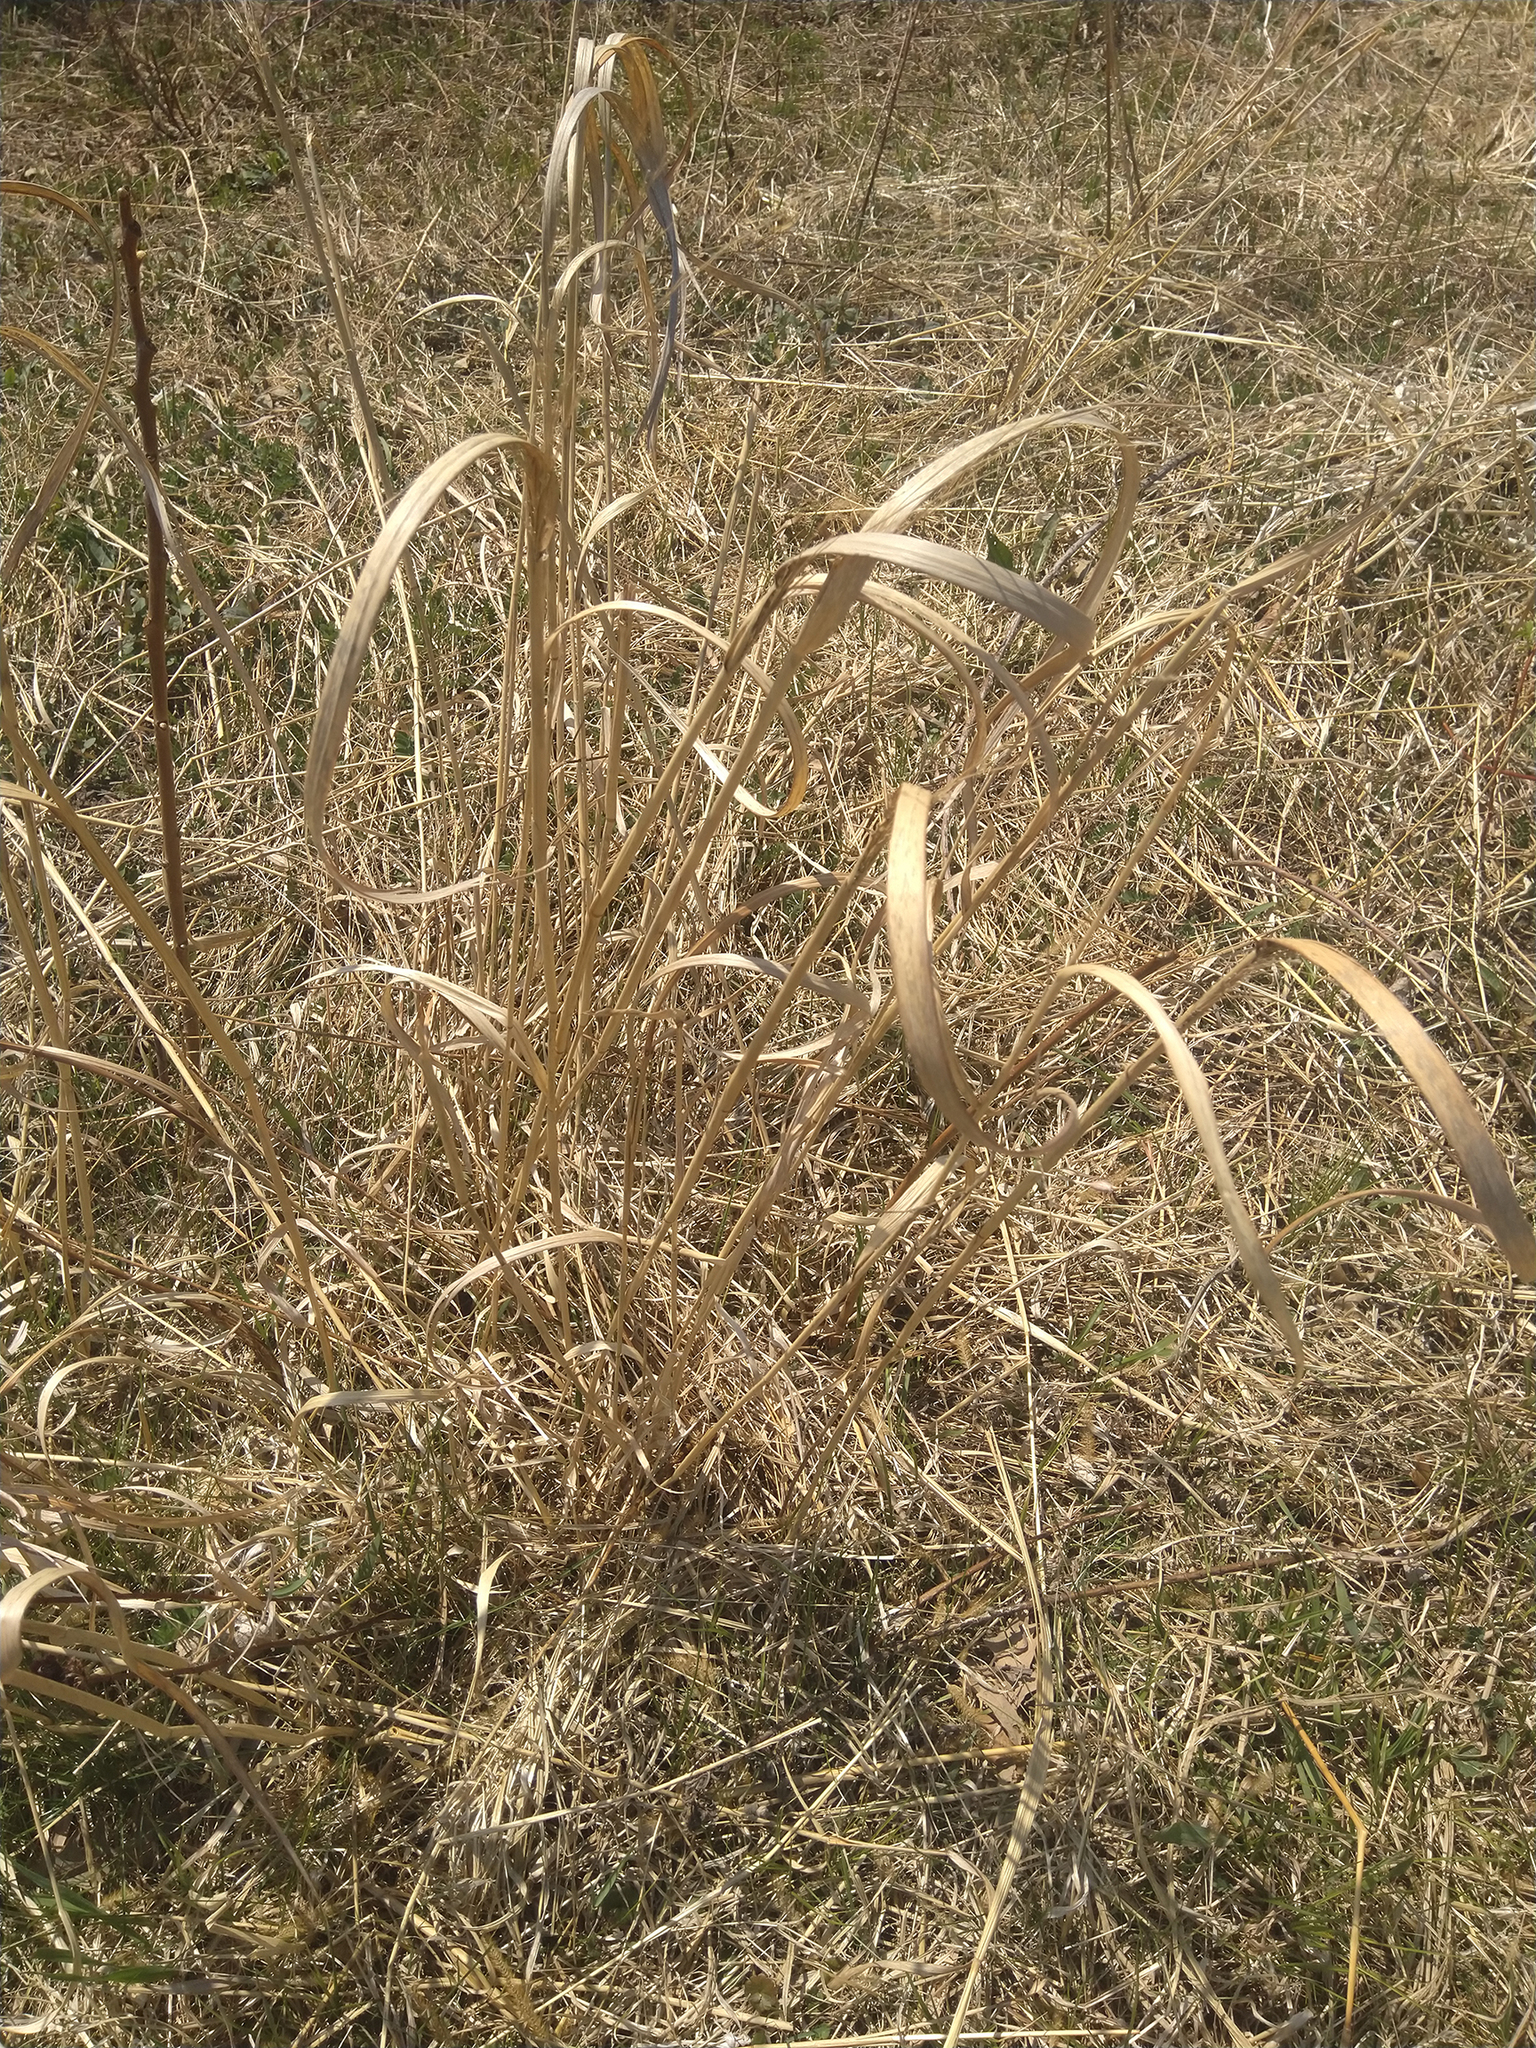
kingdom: Plantae
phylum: Tracheophyta
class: Liliopsida
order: Poales
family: Poaceae
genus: Panicum
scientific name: Panicum virgatum
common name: Switchgrass
